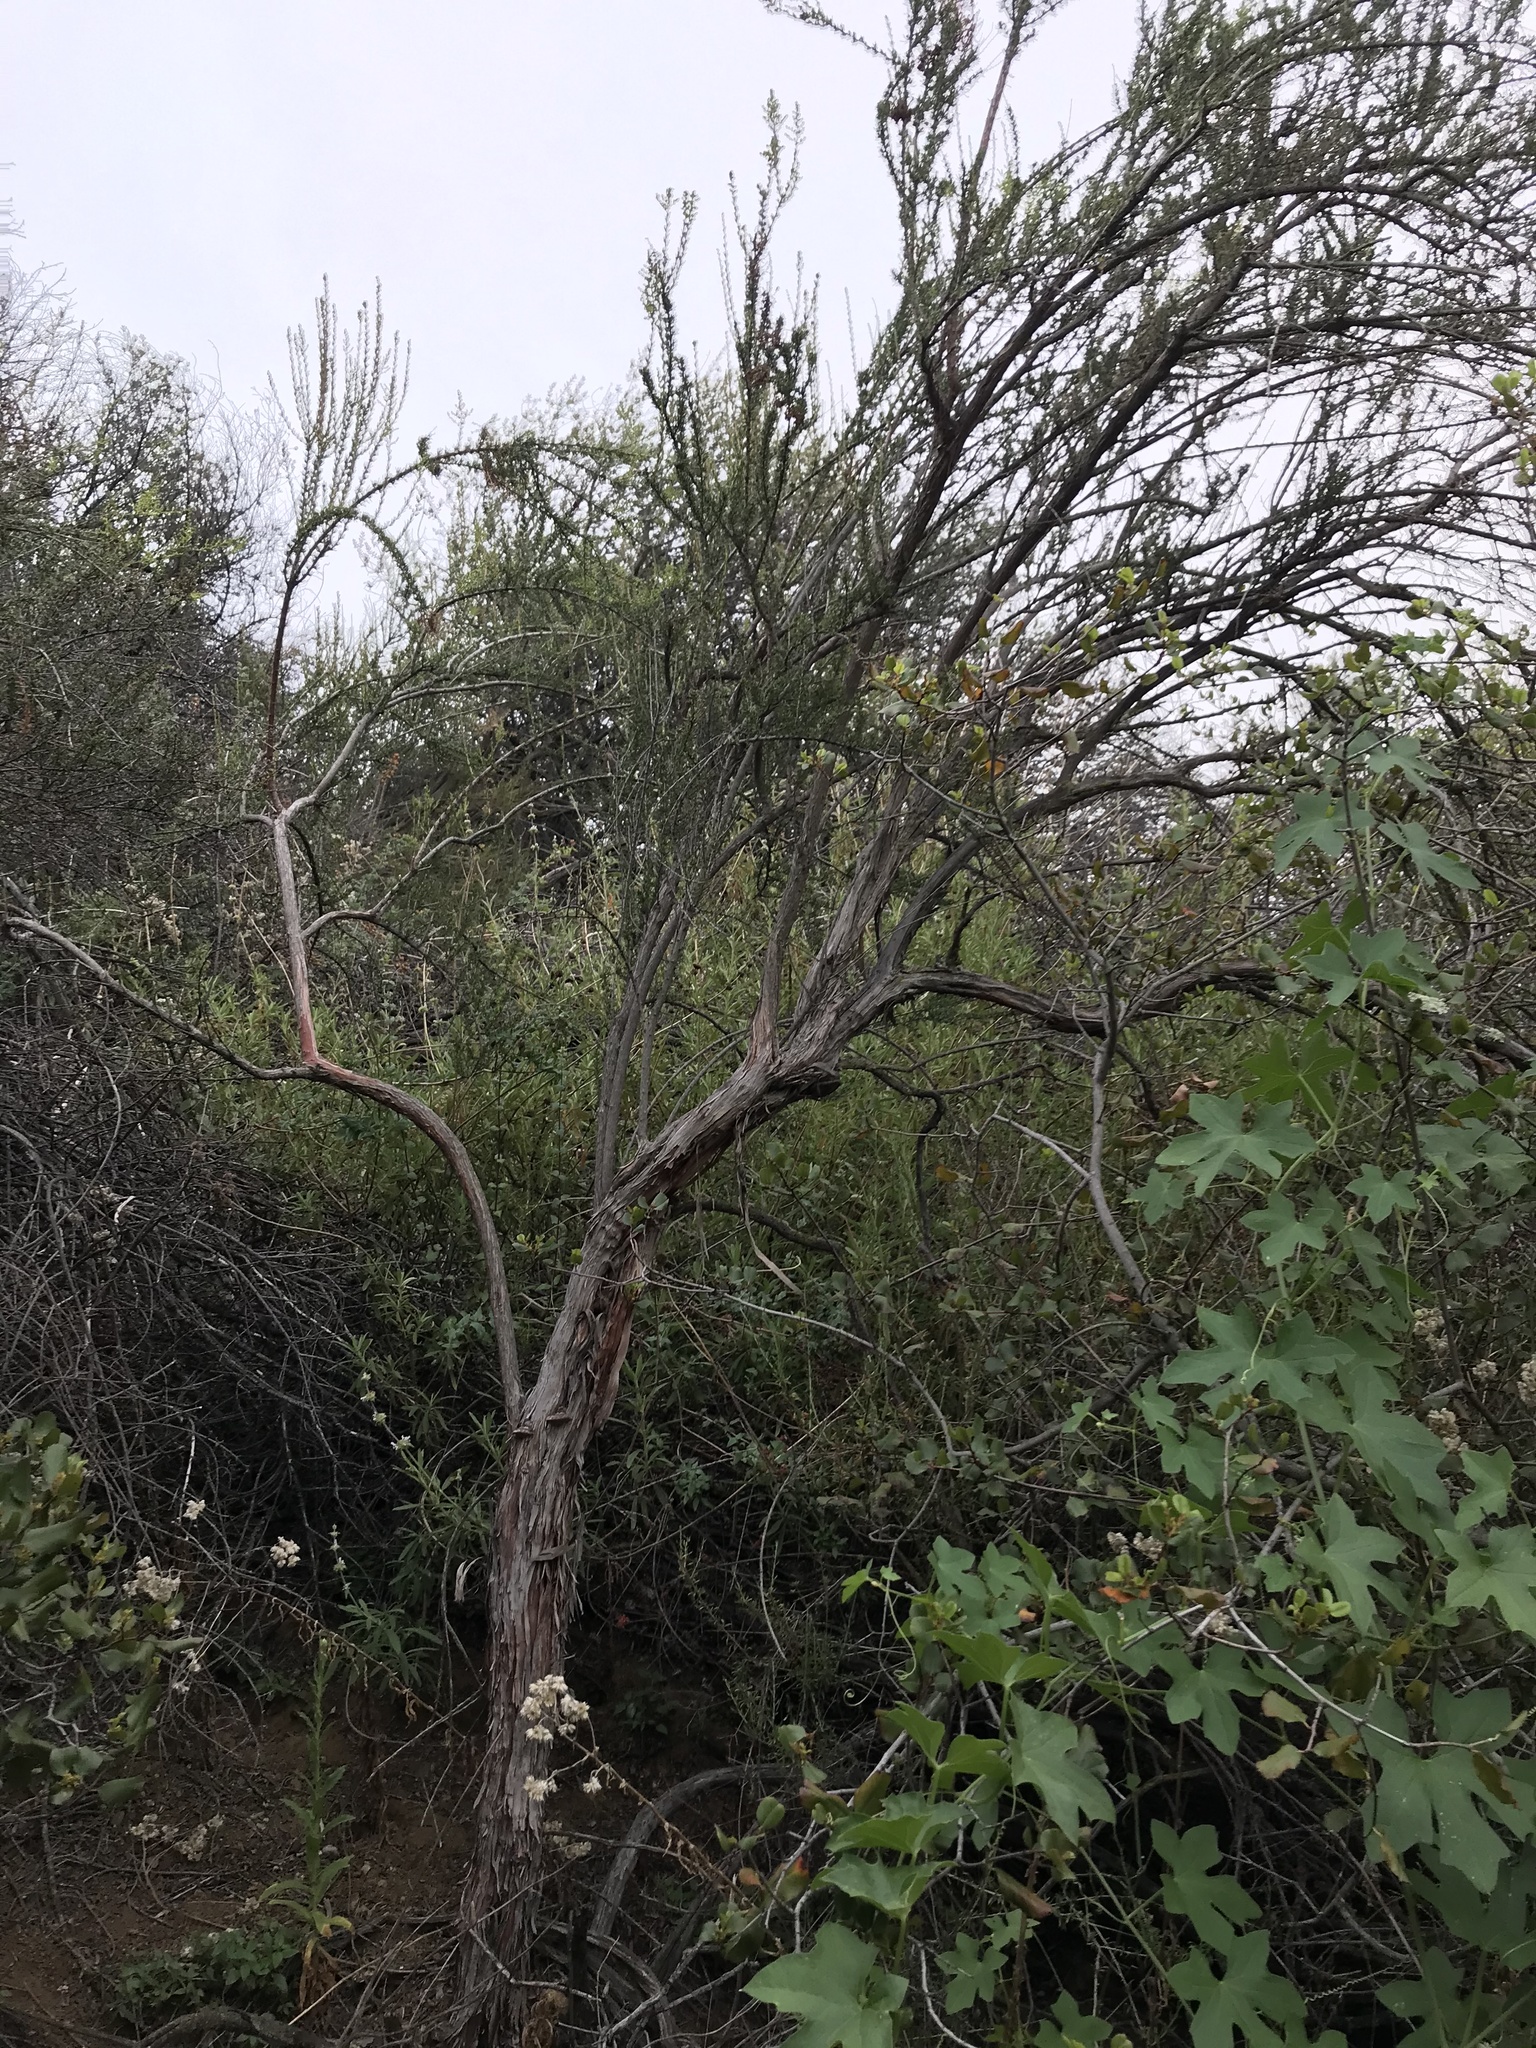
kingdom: Plantae
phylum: Tracheophyta
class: Magnoliopsida
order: Rosales
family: Rosaceae
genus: Adenostoma
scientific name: Adenostoma fasciculatum
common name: Chamise
